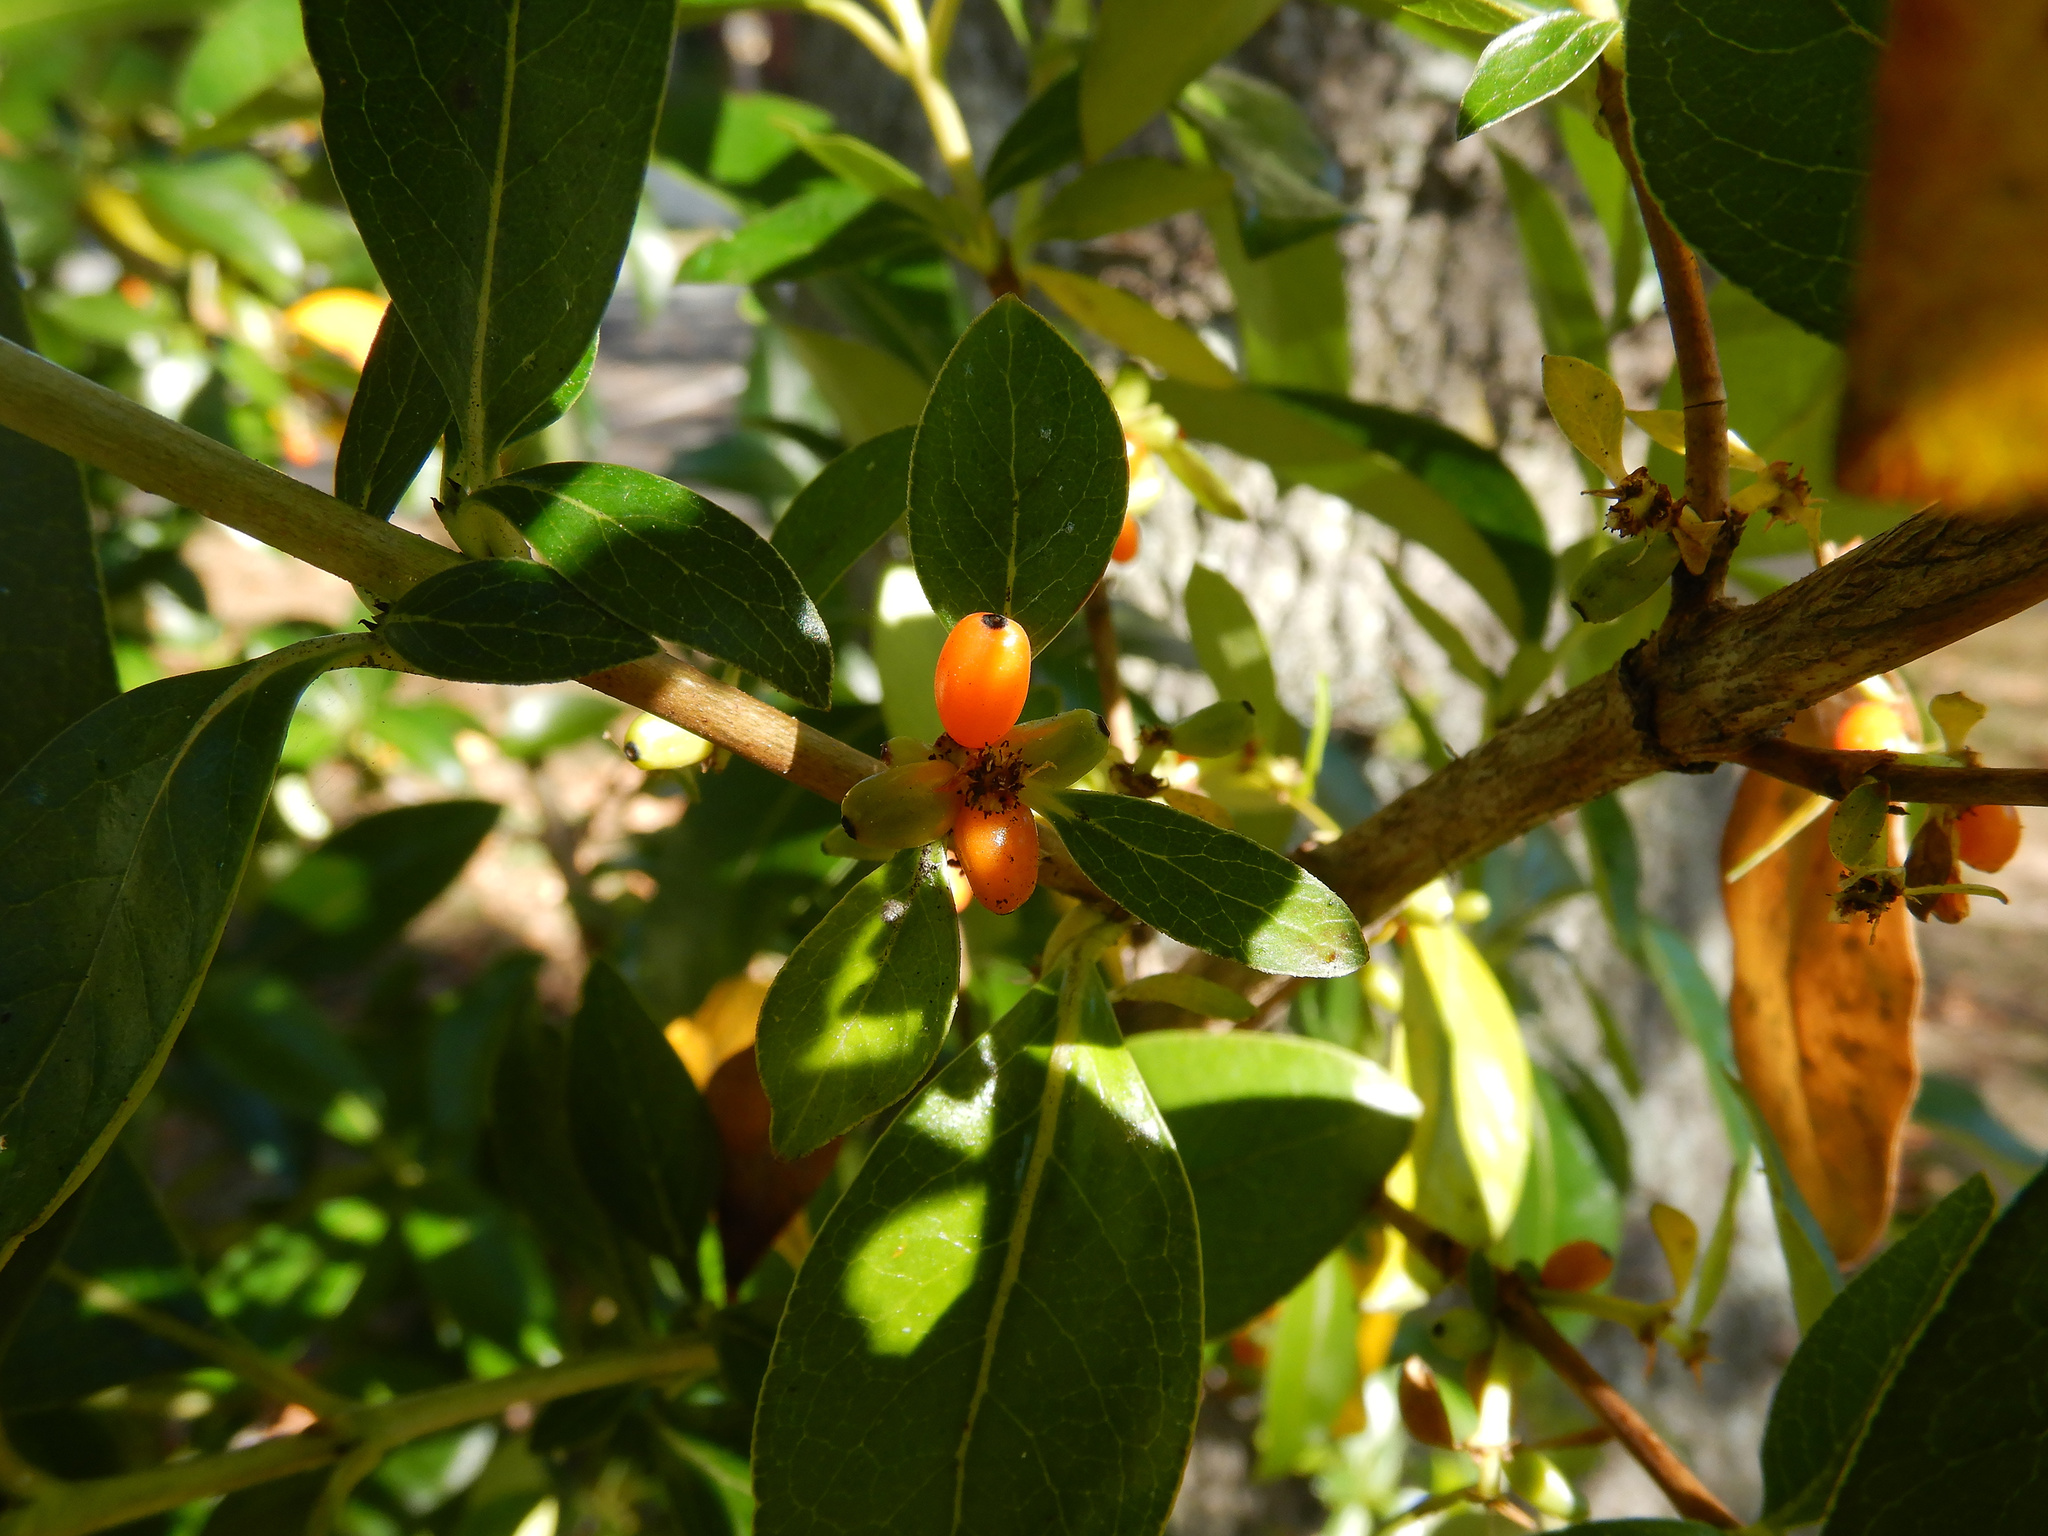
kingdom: Plantae
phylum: Tracheophyta
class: Magnoliopsida
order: Gentianales
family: Rubiaceae
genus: Coprosma
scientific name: Coprosma robusta
